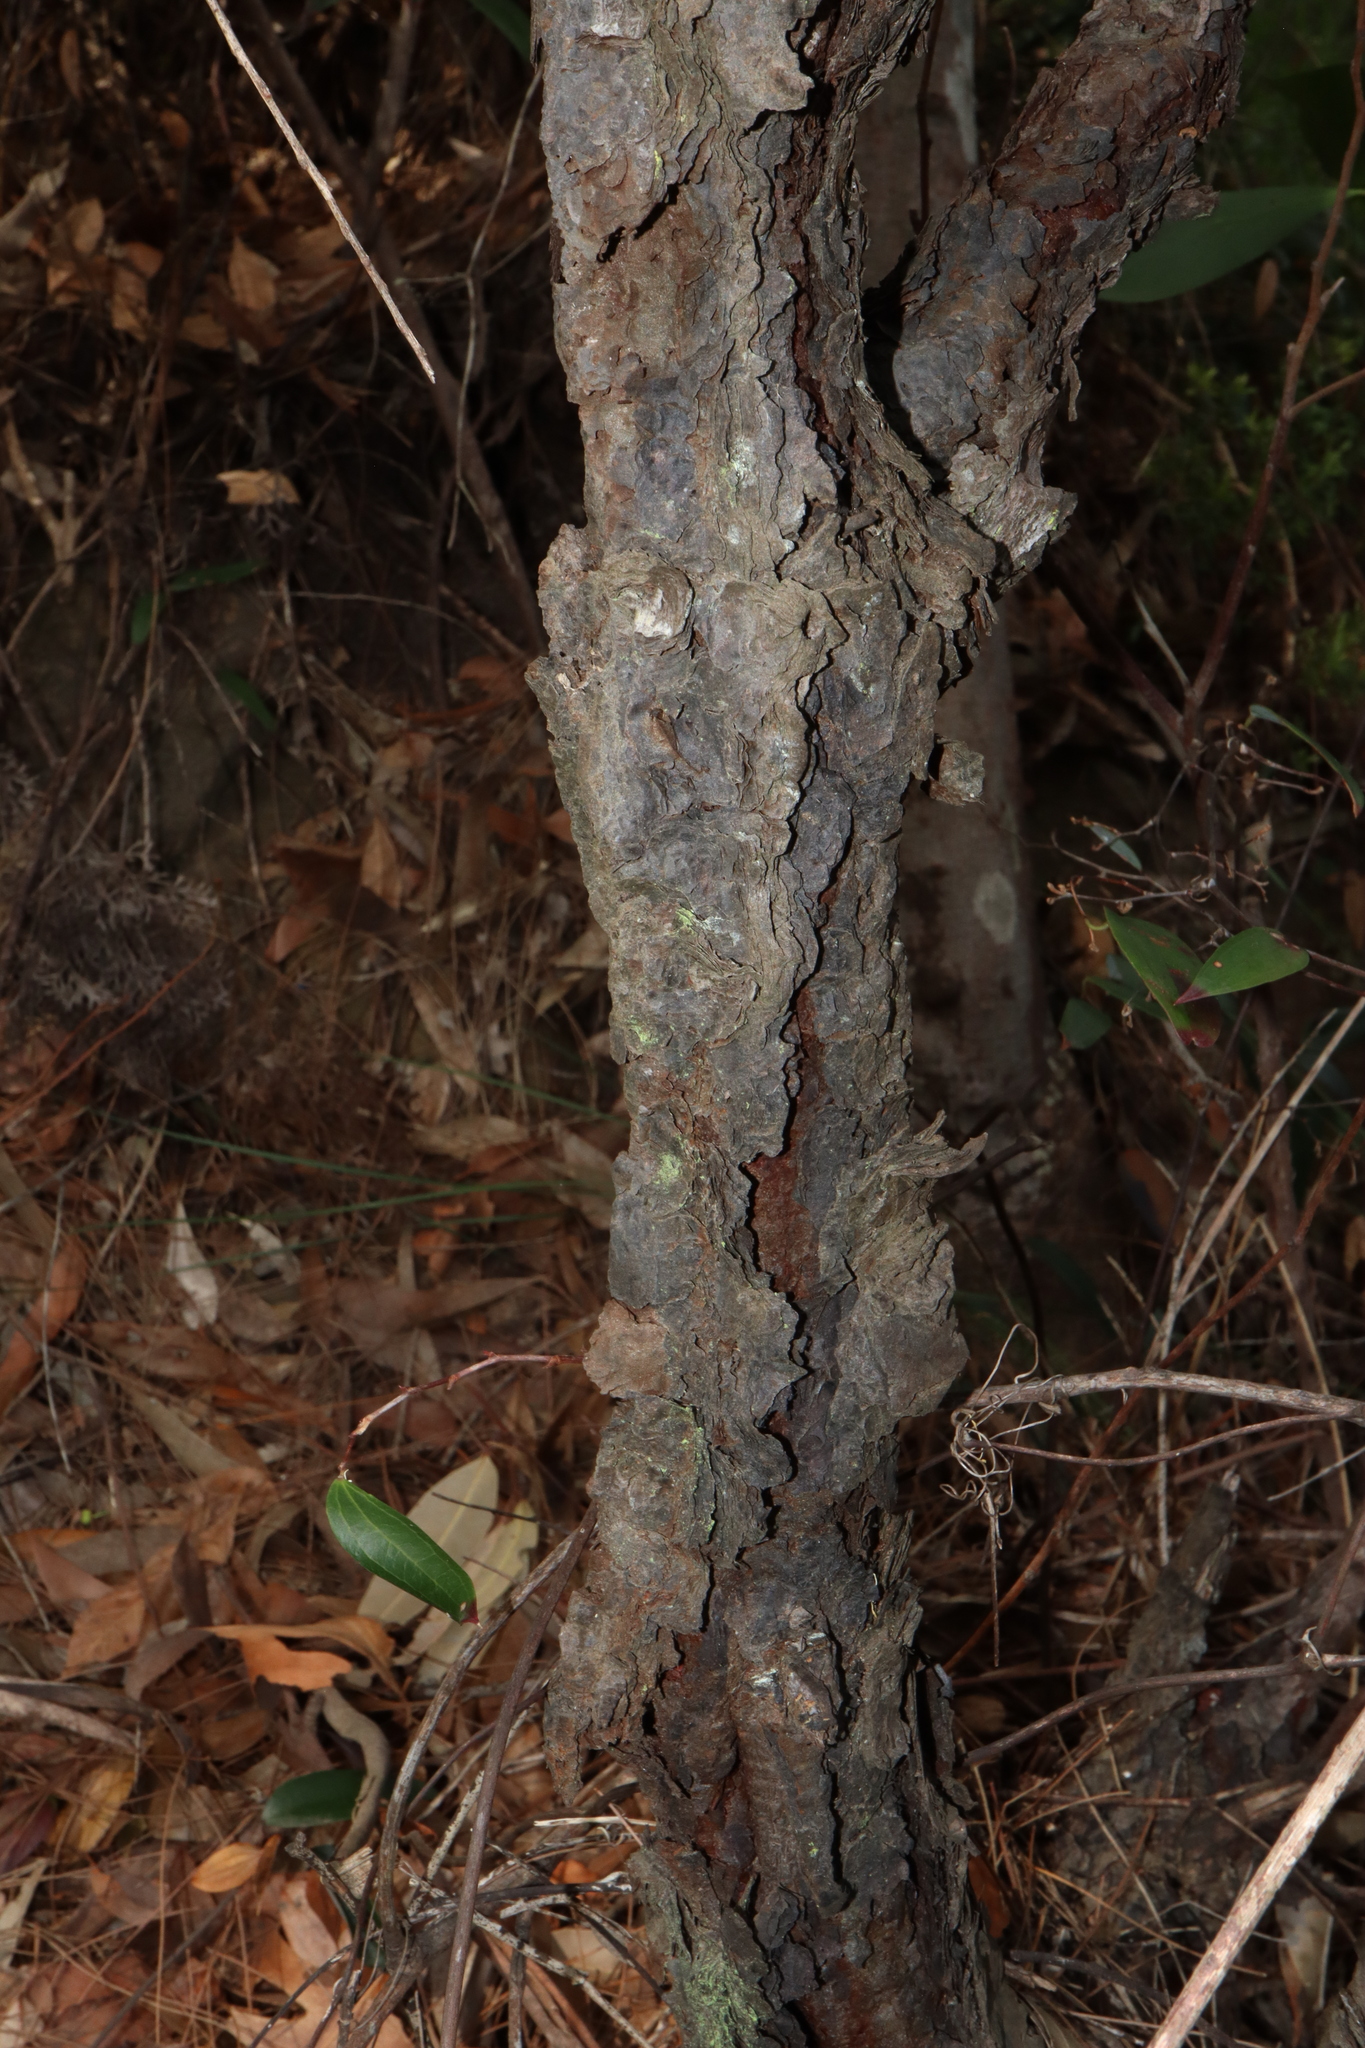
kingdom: Plantae
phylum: Tracheophyta
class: Magnoliopsida
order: Proteales
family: Proteaceae
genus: Persoonia
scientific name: Persoonia levis
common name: Smooth geebung
